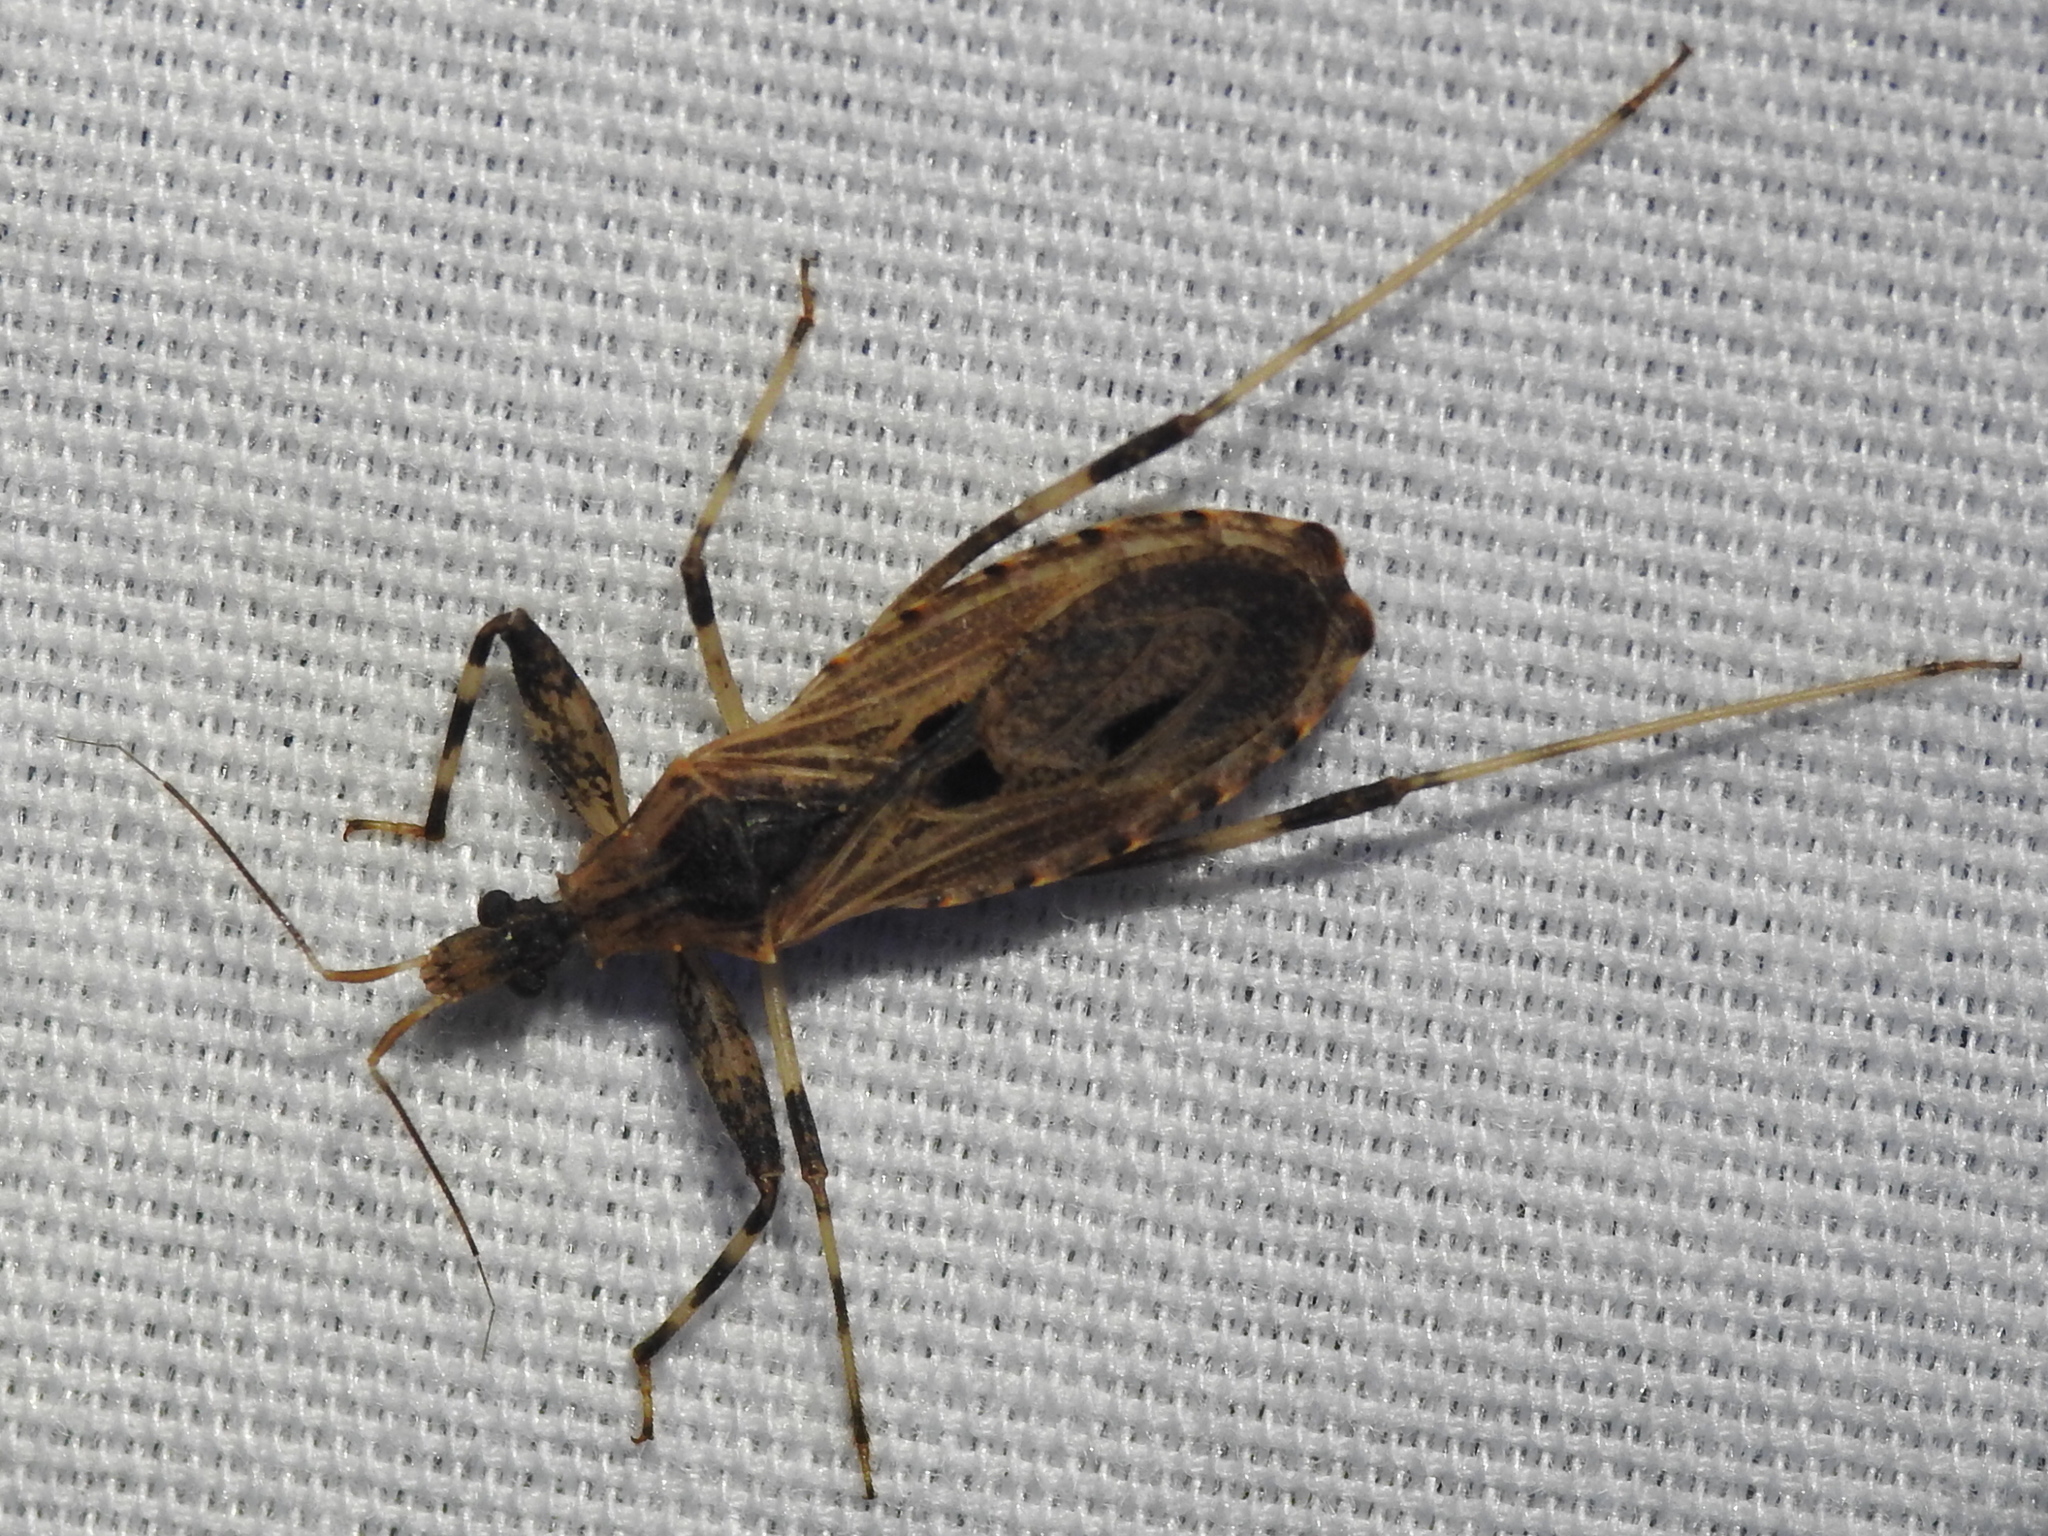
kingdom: Animalia
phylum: Arthropoda
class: Insecta
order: Hemiptera
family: Reduviidae
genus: Oncocephalus
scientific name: Oncocephalus geniculatus
